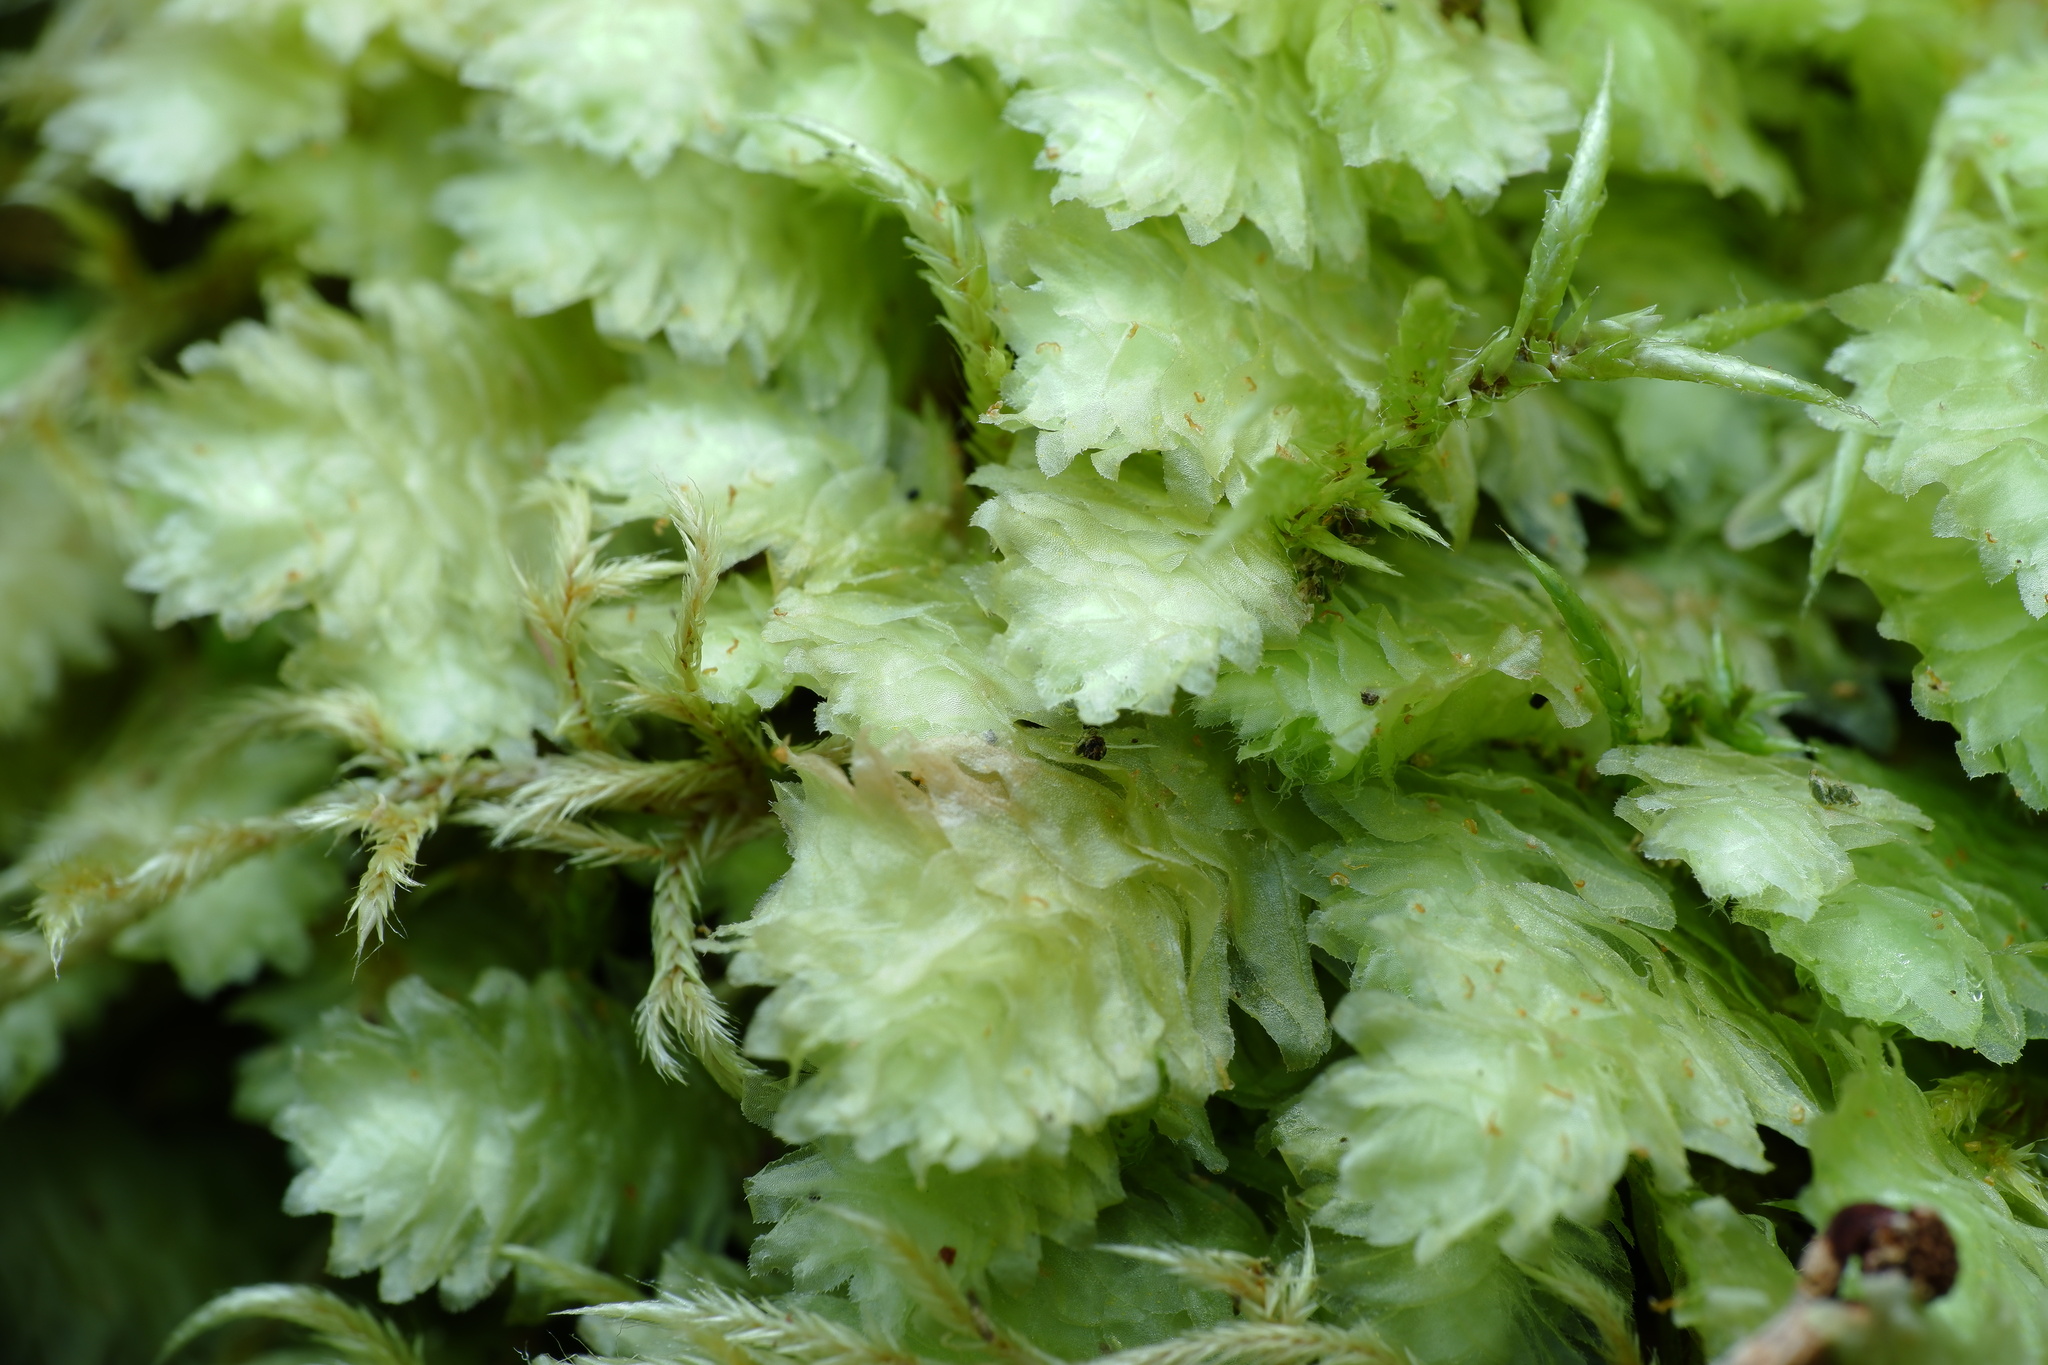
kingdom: Plantae
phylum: Marchantiophyta
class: Jungermanniopsida
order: Jungermanniales
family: Schistochilaceae
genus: Schistochila
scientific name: Schistochila lehmanniana
